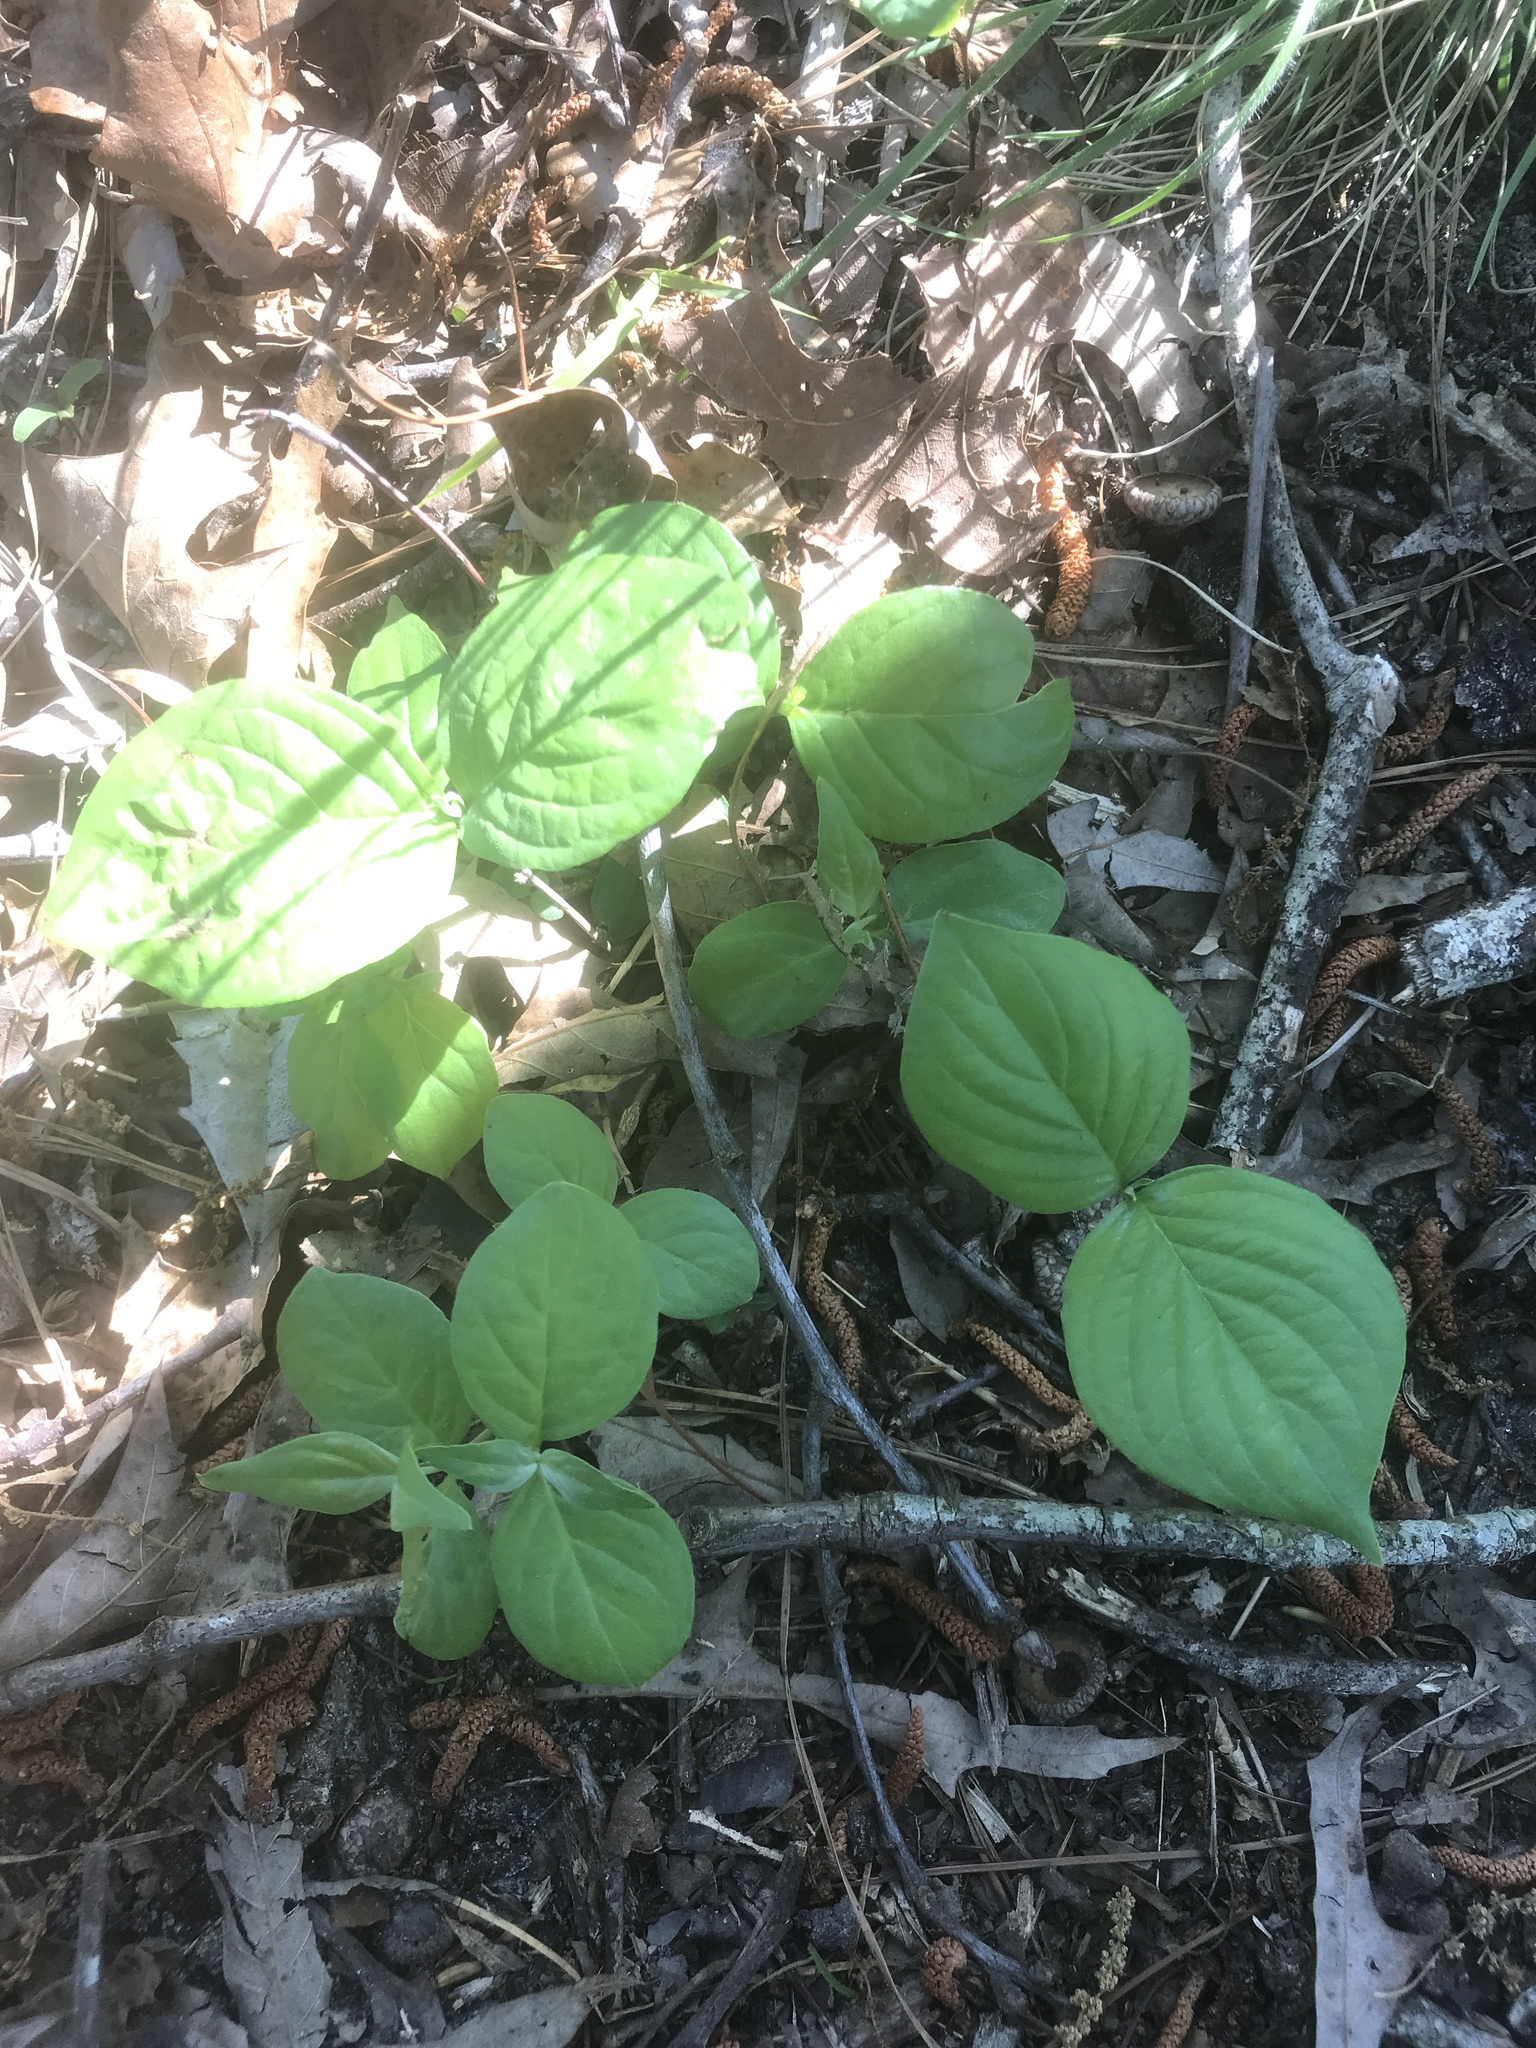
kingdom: Plantae
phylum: Tracheophyta
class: Magnoliopsida
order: Cornales
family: Cornaceae
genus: Cornus
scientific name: Cornus florida
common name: Flowering dogwood
